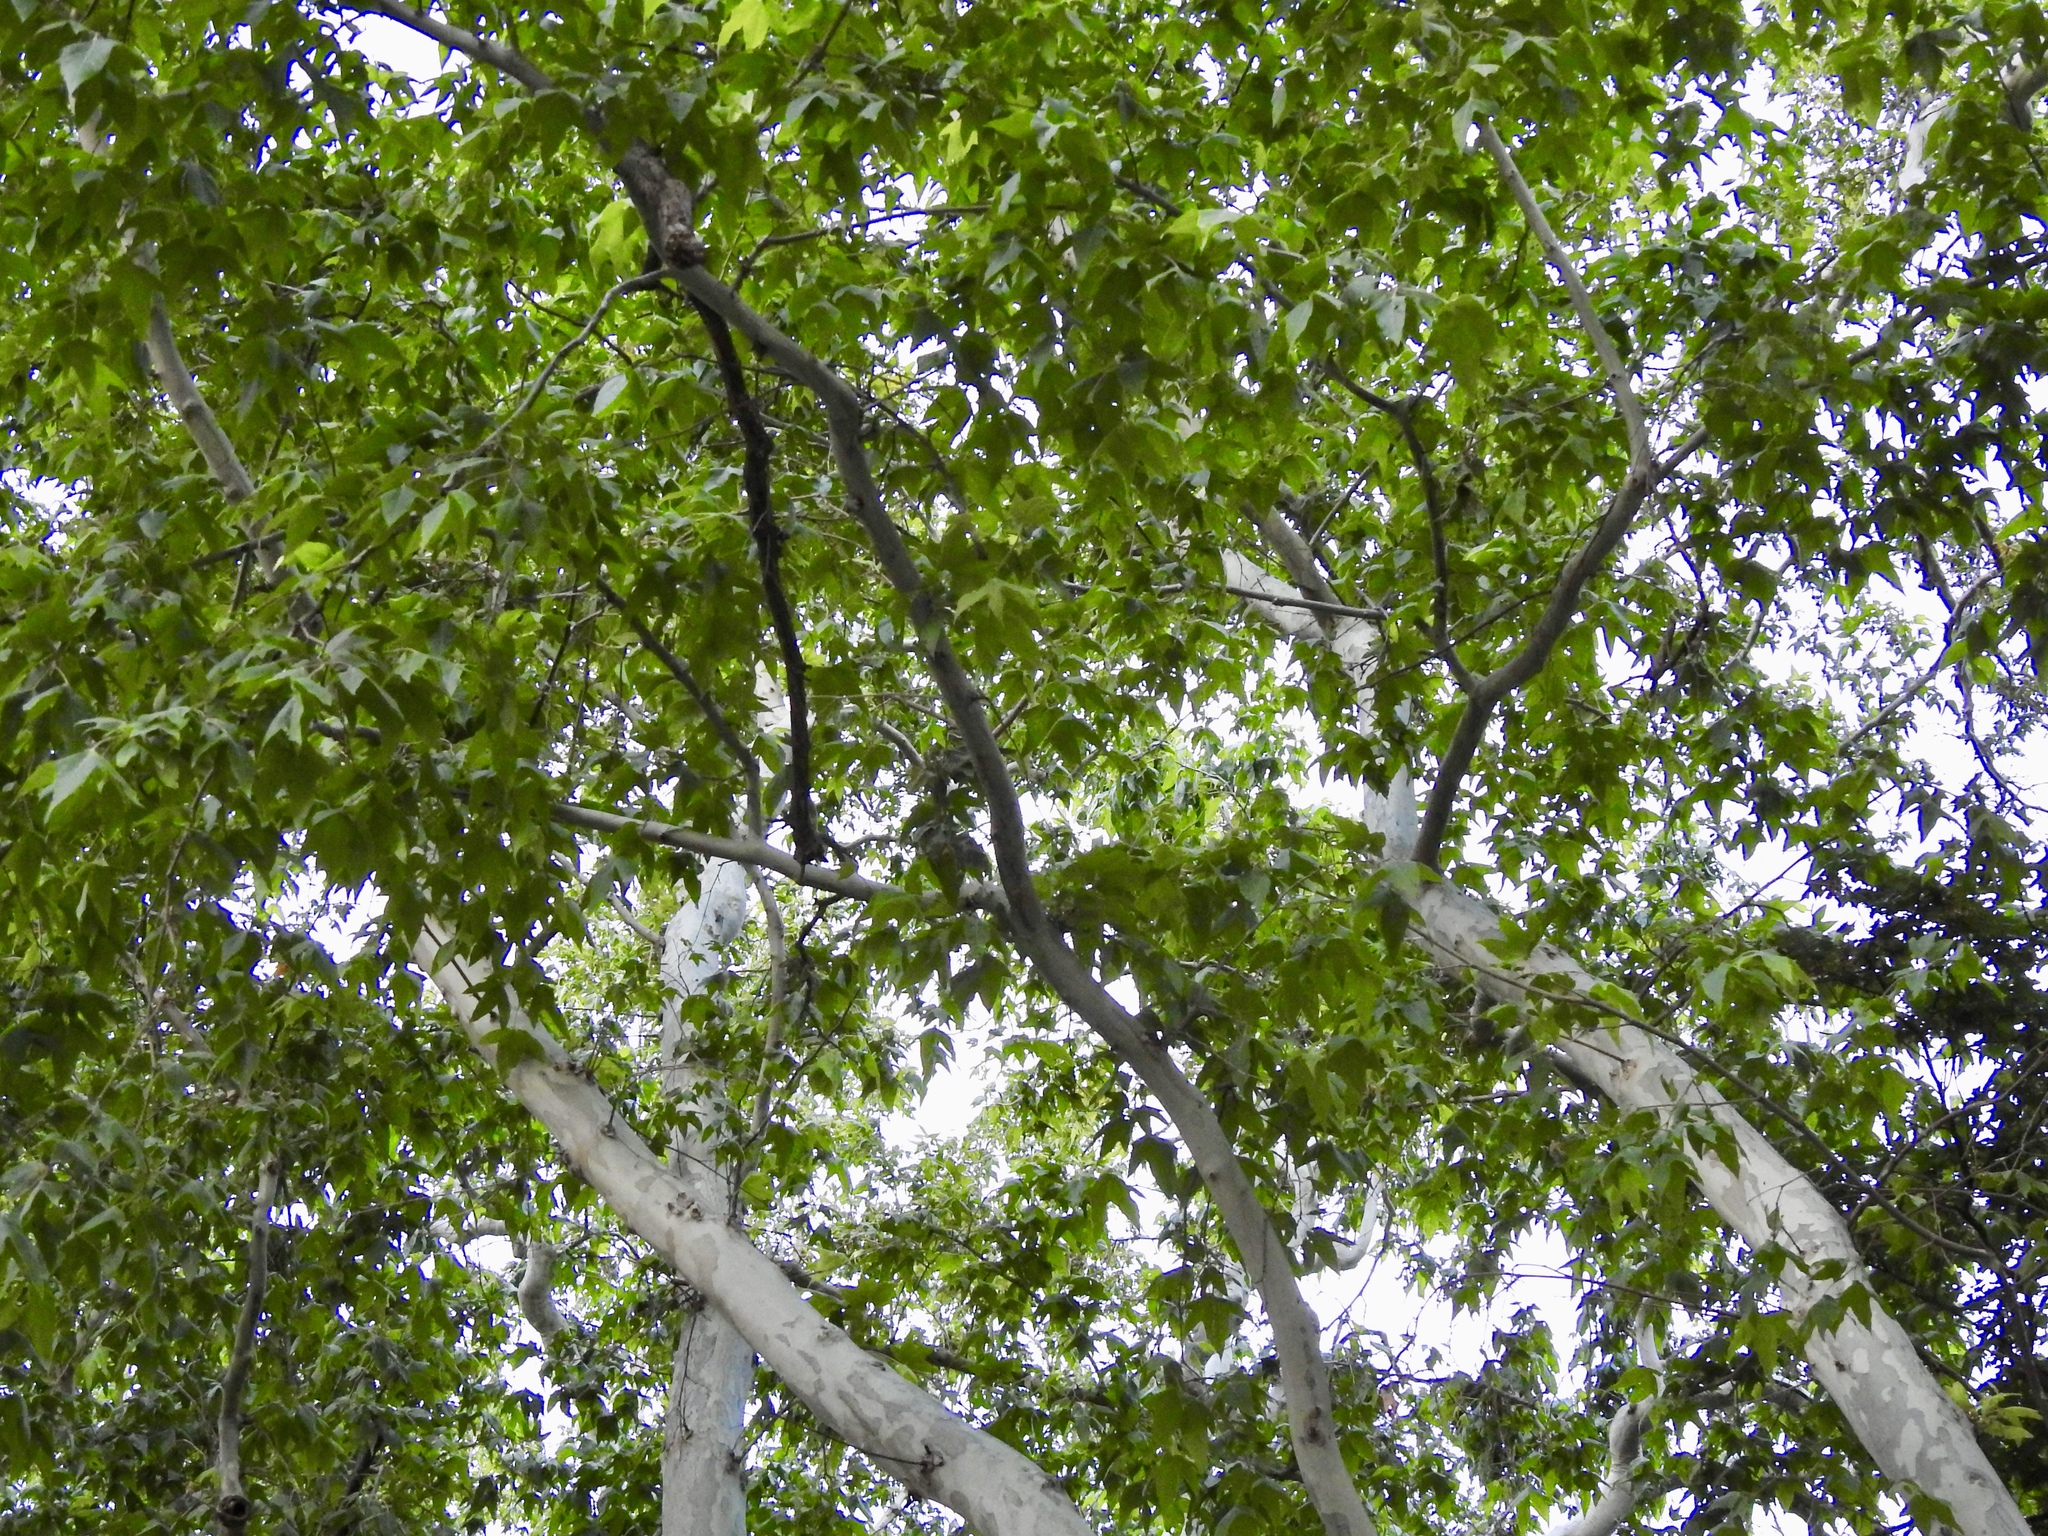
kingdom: Plantae
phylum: Tracheophyta
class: Magnoliopsida
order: Proteales
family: Platanaceae
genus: Platanus
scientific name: Platanus wrightii
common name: Arizona sycamore
